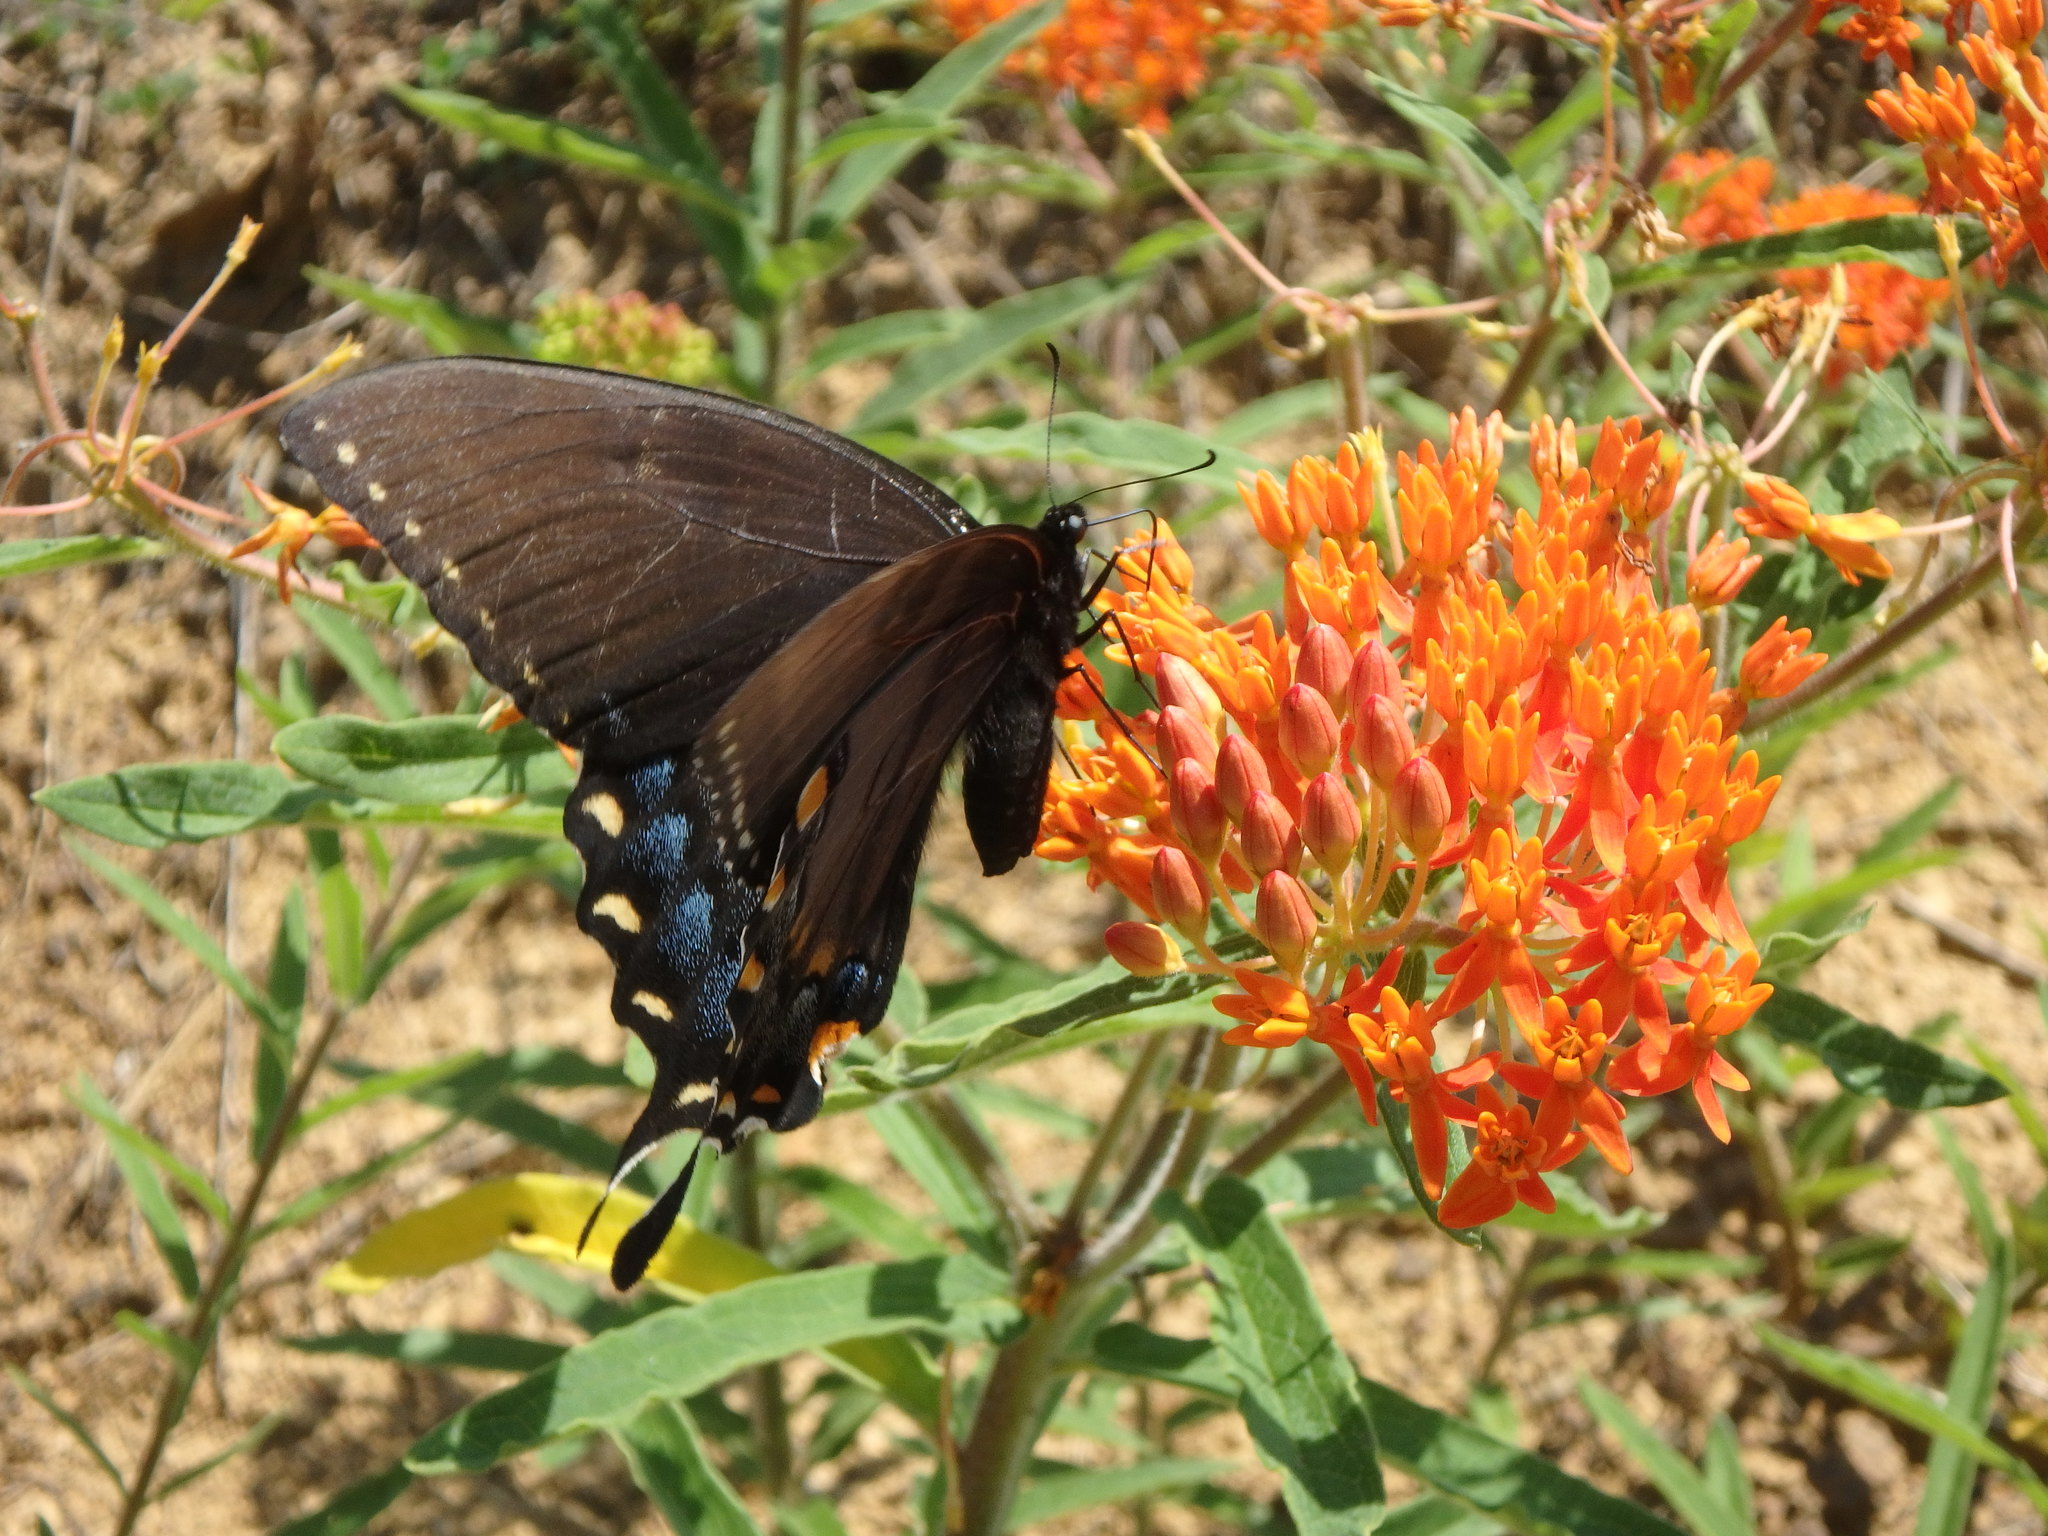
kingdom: Animalia
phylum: Arthropoda
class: Insecta
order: Lepidoptera
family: Papilionidae
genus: Papilio
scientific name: Papilio glaucus
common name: Tiger swallowtail
